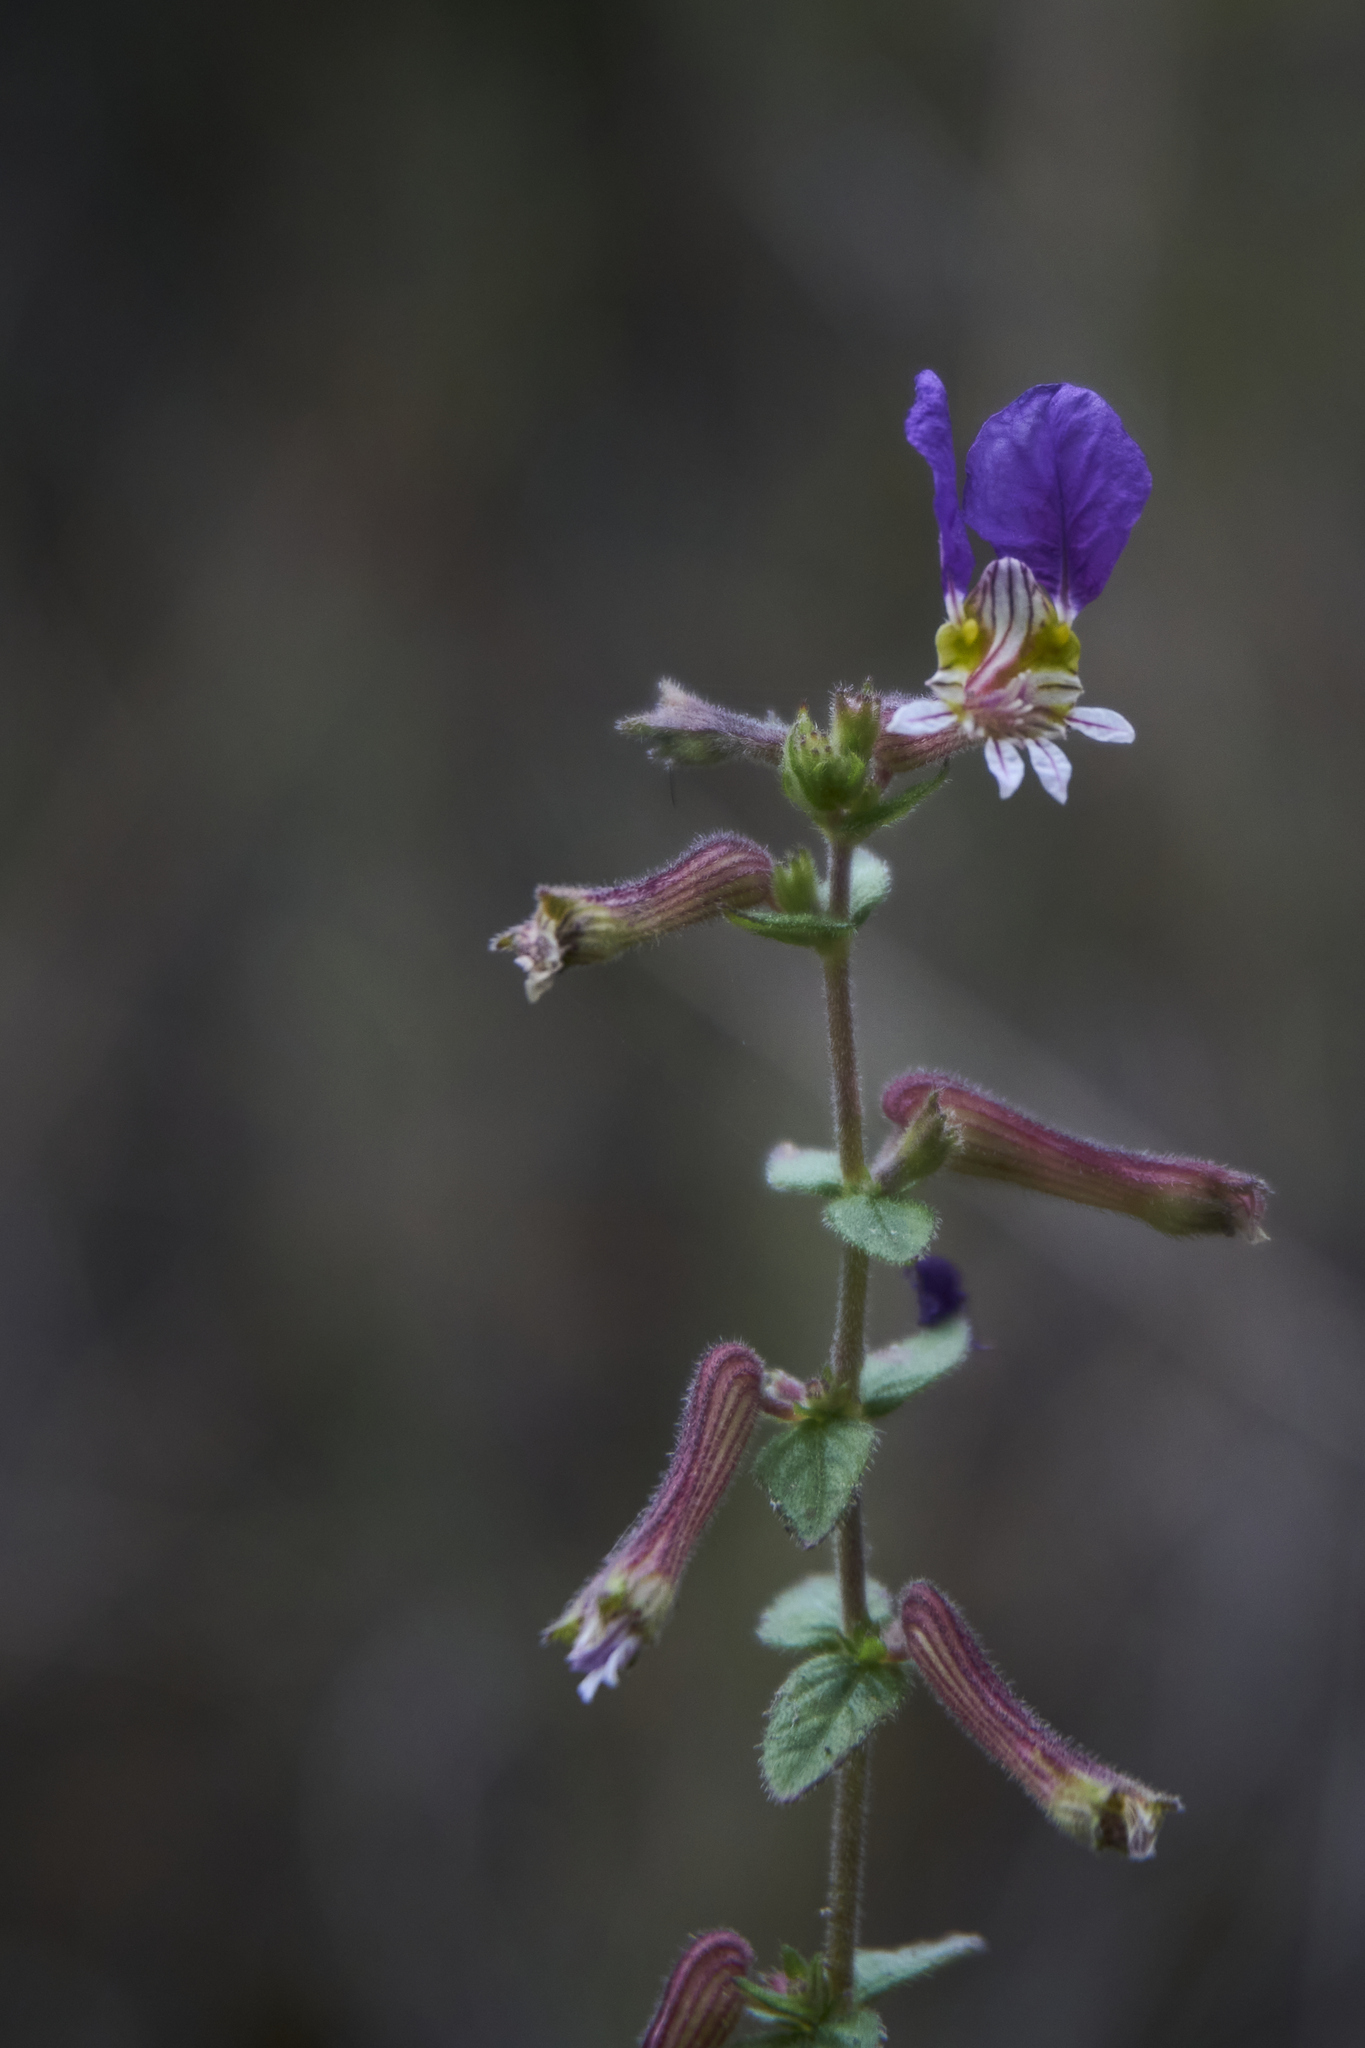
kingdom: Plantae
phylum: Tracheophyta
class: Magnoliopsida
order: Myrtales
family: Lythraceae
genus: Cuphea
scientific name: Cuphea lobophora
